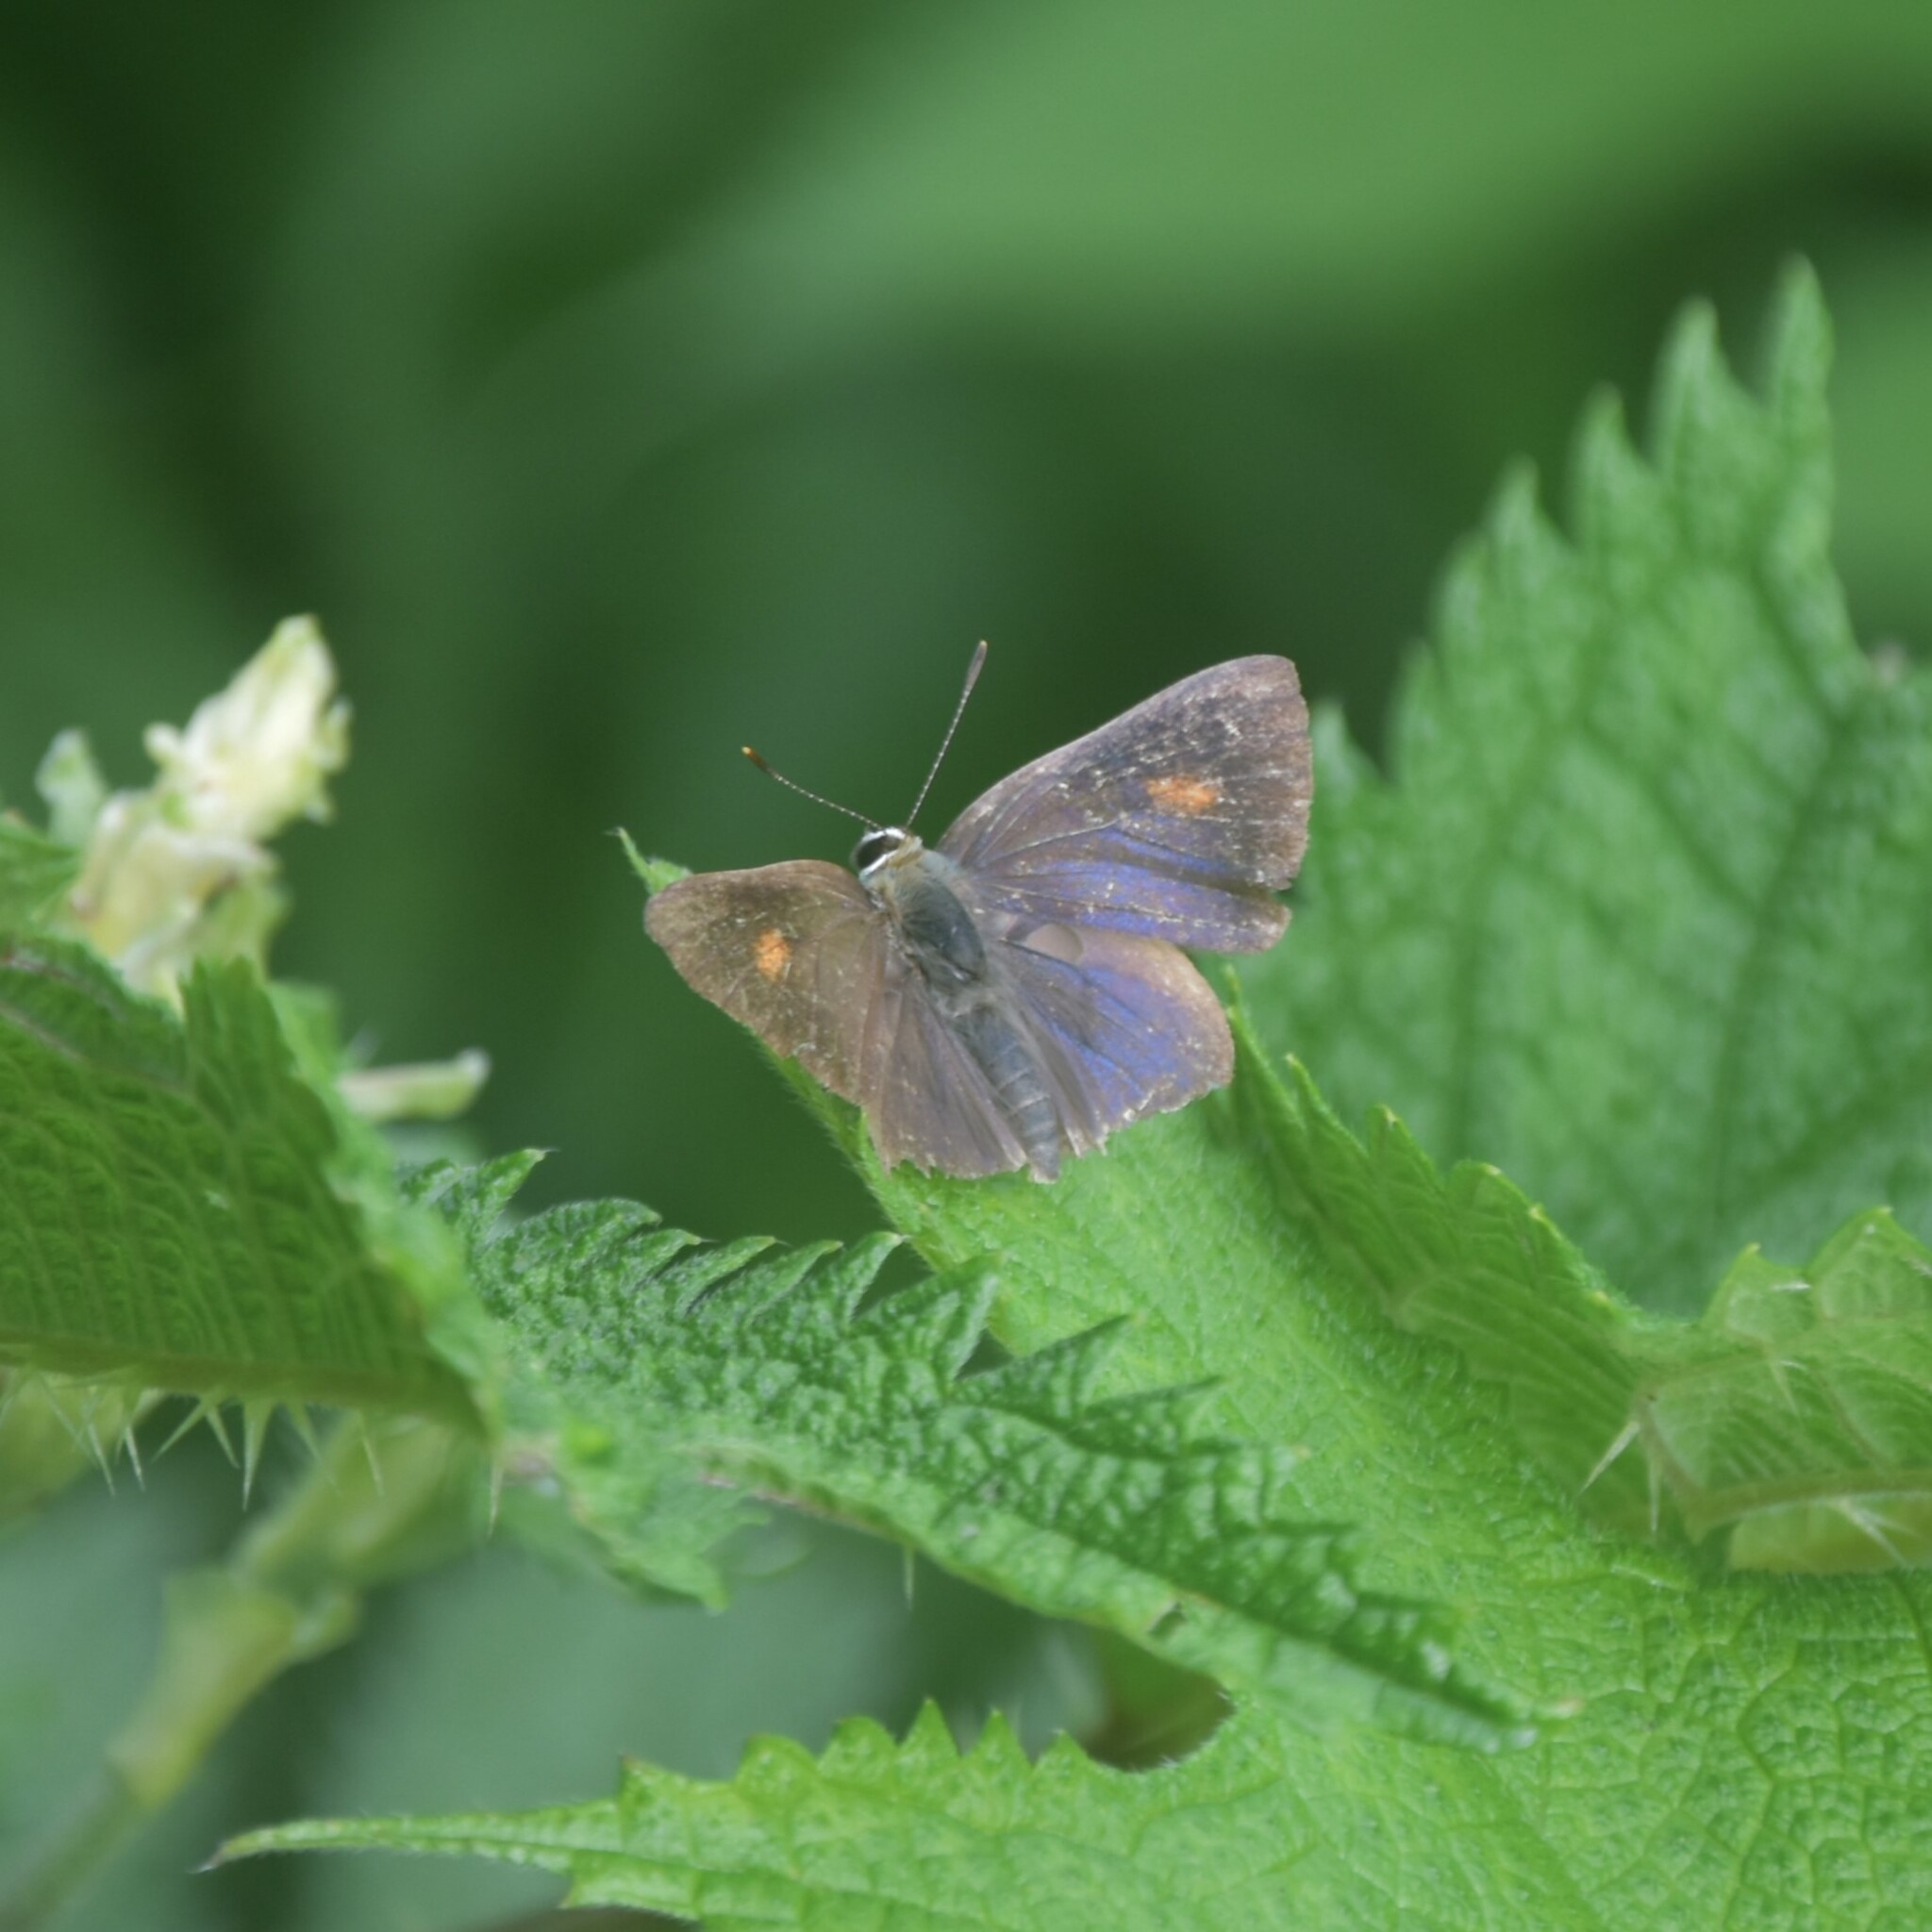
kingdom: Animalia
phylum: Arthropoda
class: Insecta
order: Lepidoptera
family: Lycaenidae
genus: Rapala
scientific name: Rapala nissa
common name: Common flash
